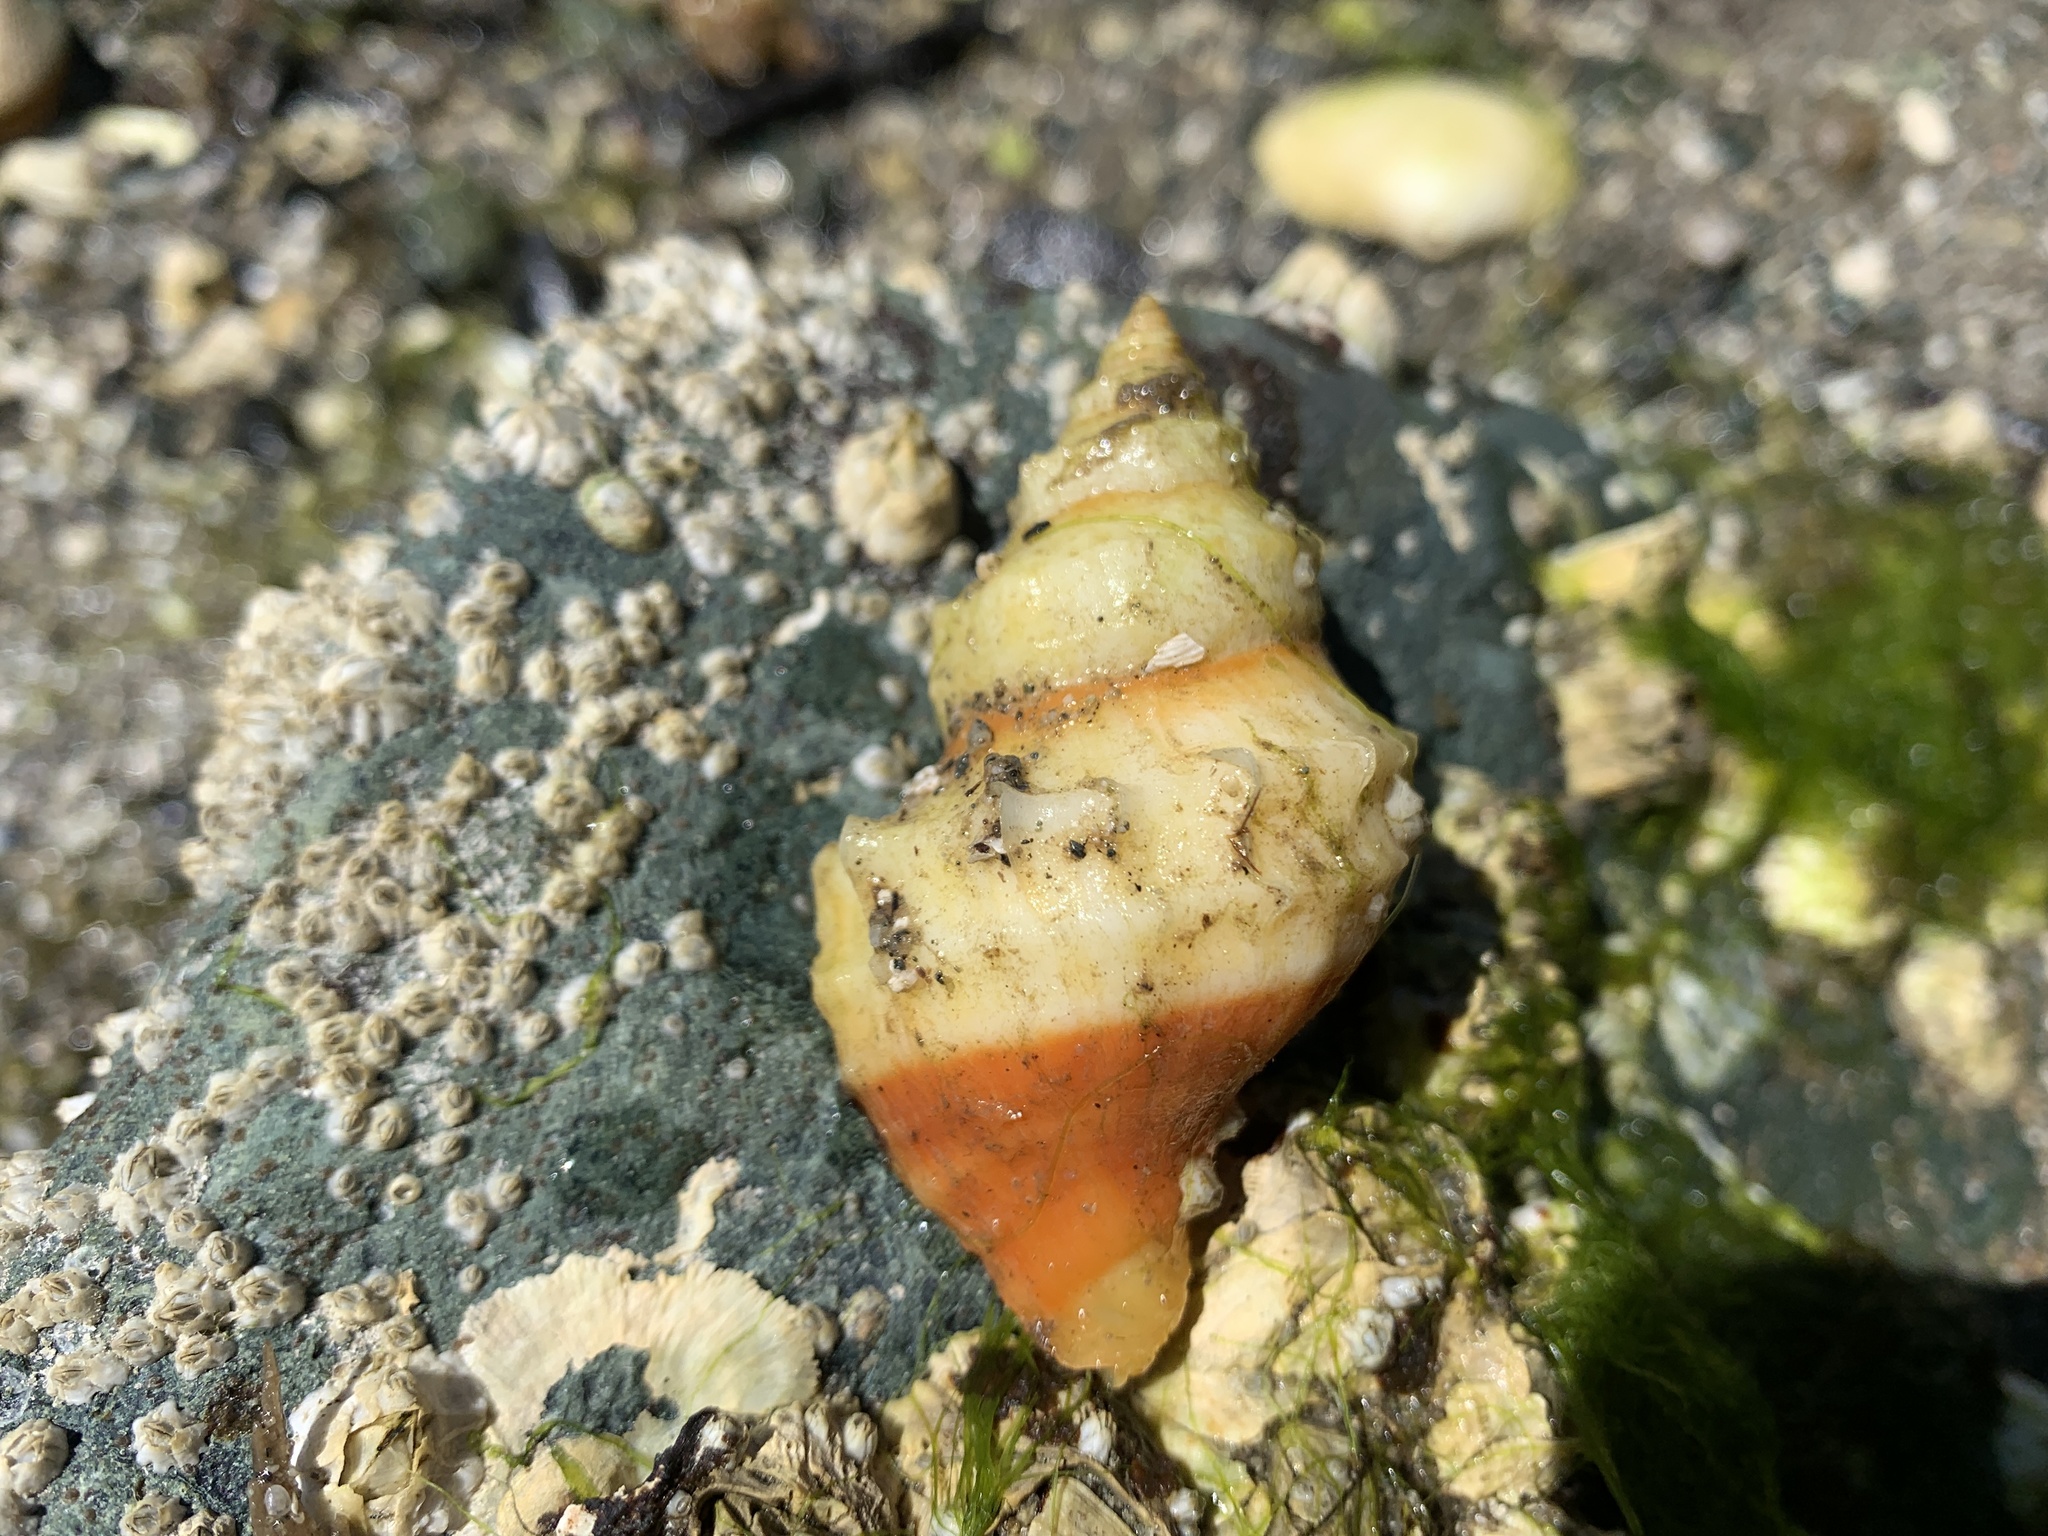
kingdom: Animalia
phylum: Mollusca
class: Gastropoda
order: Neogastropoda
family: Muricidae
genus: Nucella
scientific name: Nucella lamellosa
